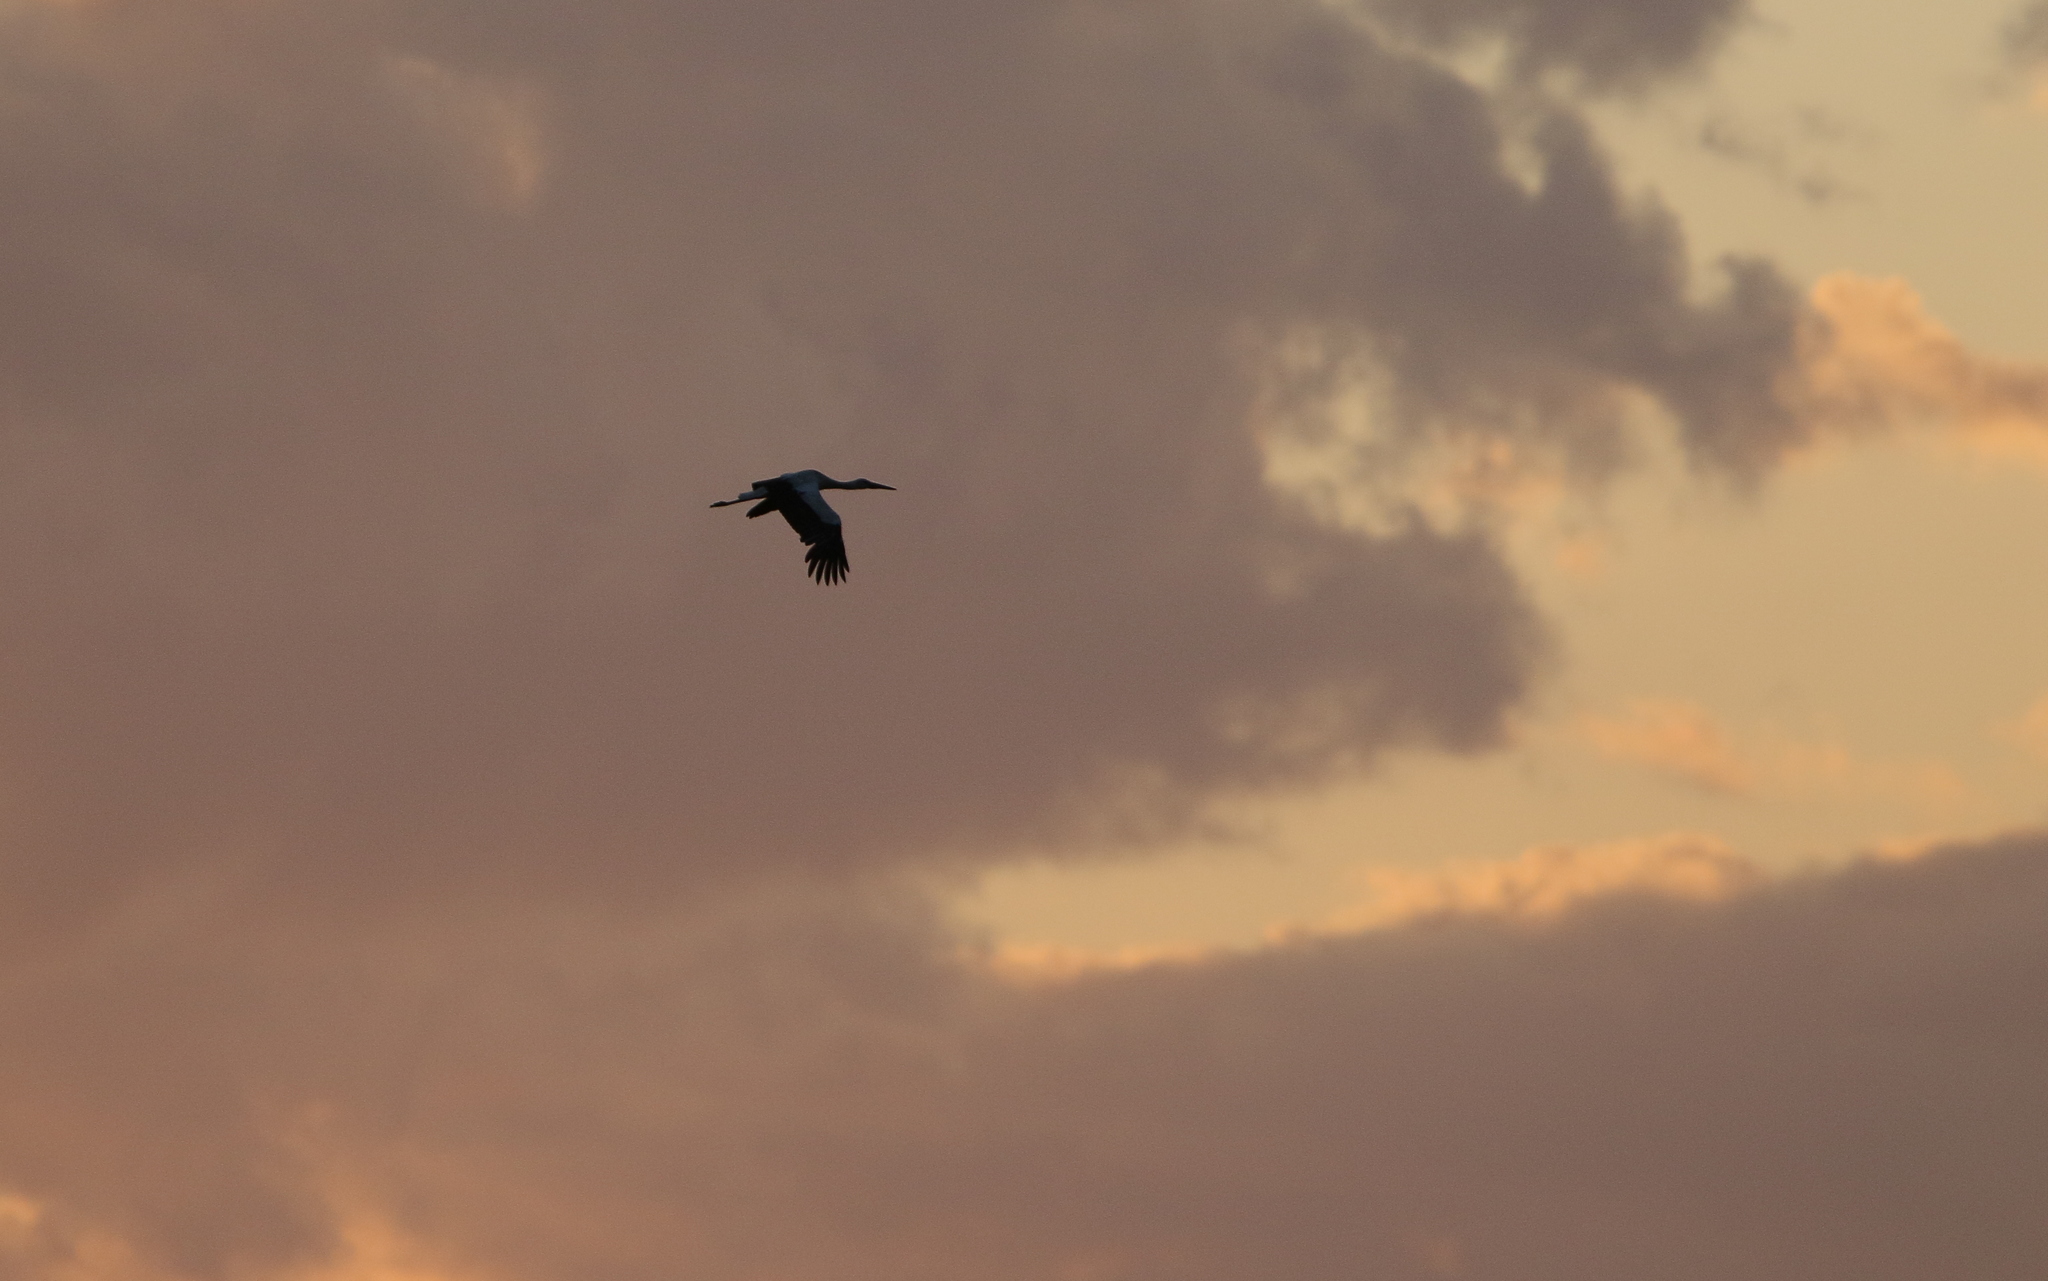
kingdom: Animalia
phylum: Chordata
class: Aves
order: Ciconiiformes
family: Ciconiidae
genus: Ciconia
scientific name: Ciconia ciconia
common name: White stork
